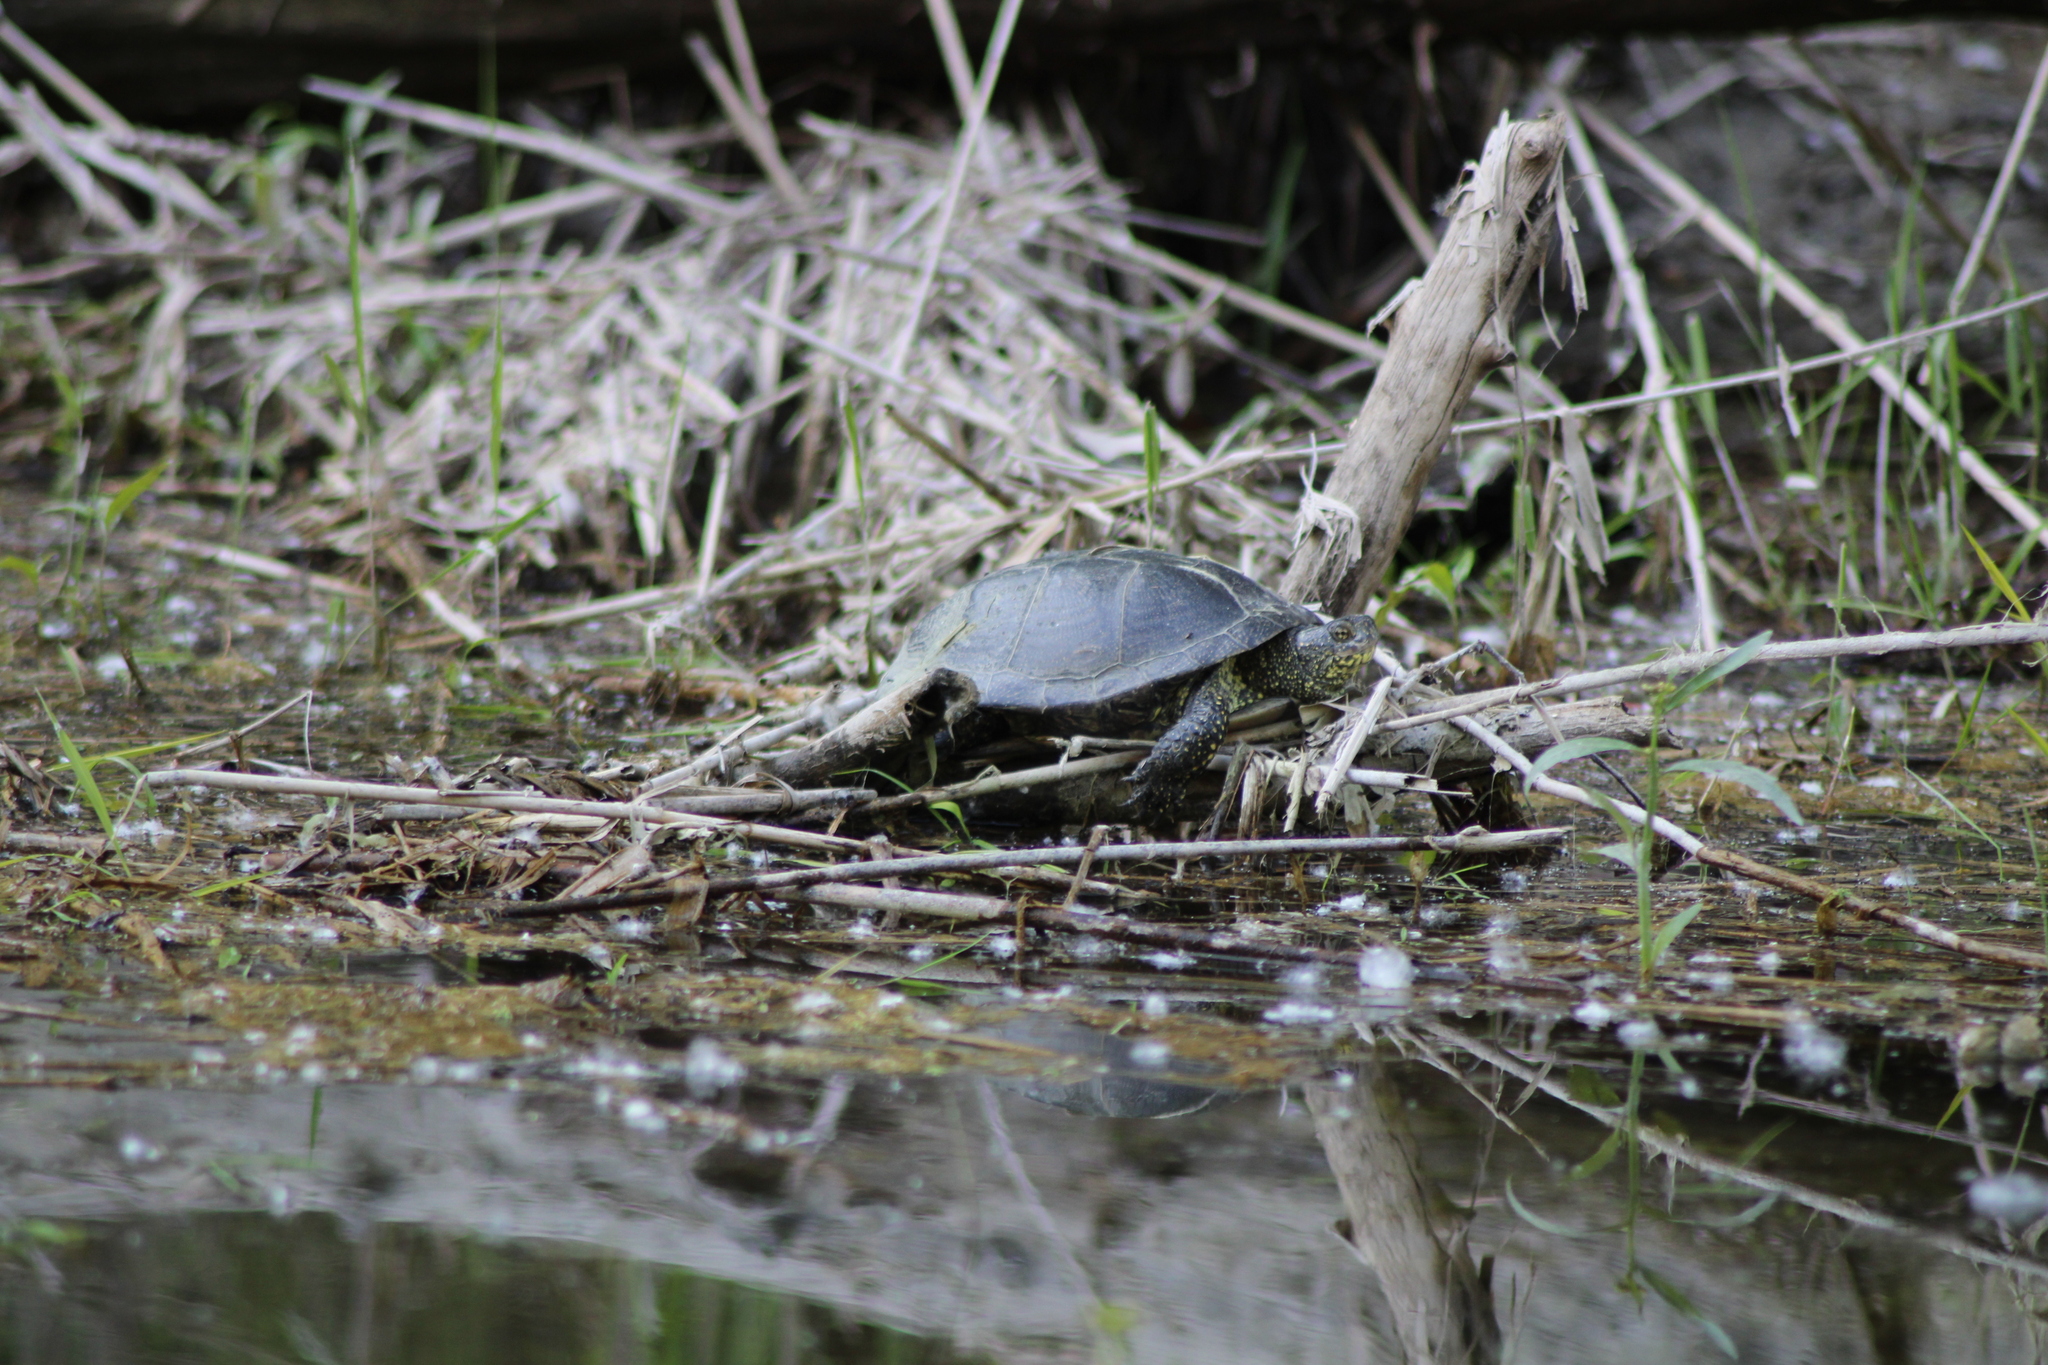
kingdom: Animalia
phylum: Chordata
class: Testudines
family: Emydidae
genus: Emys
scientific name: Emys orbicularis
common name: European pond turtle
